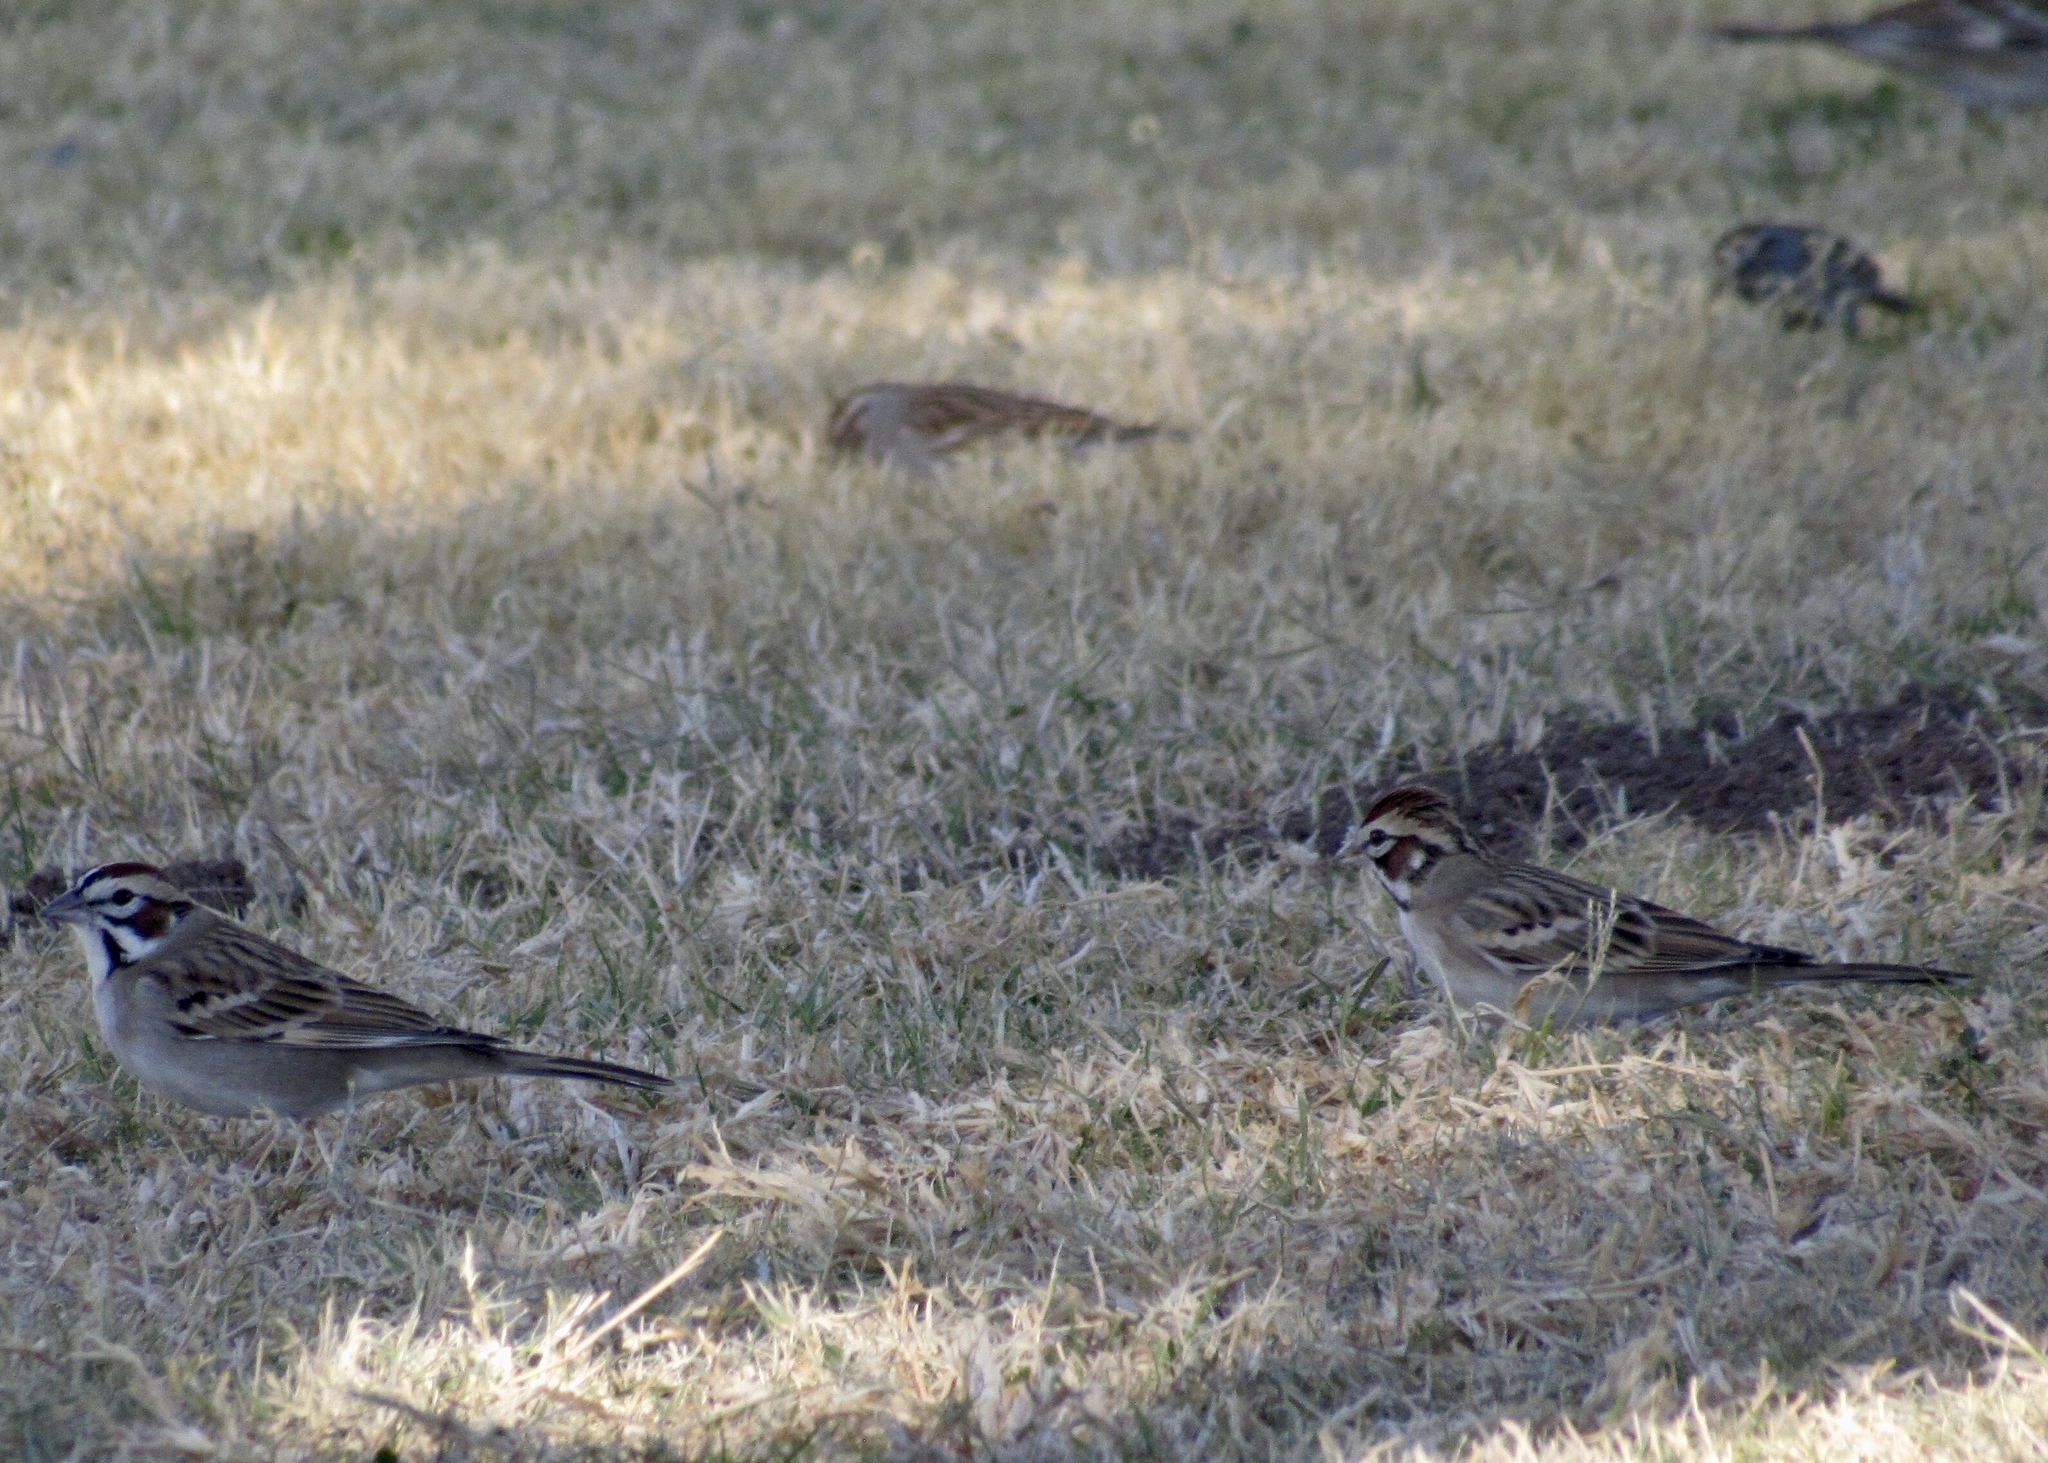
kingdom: Animalia
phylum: Chordata
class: Aves
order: Passeriformes
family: Passerellidae
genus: Chondestes
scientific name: Chondestes grammacus
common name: Lark sparrow
